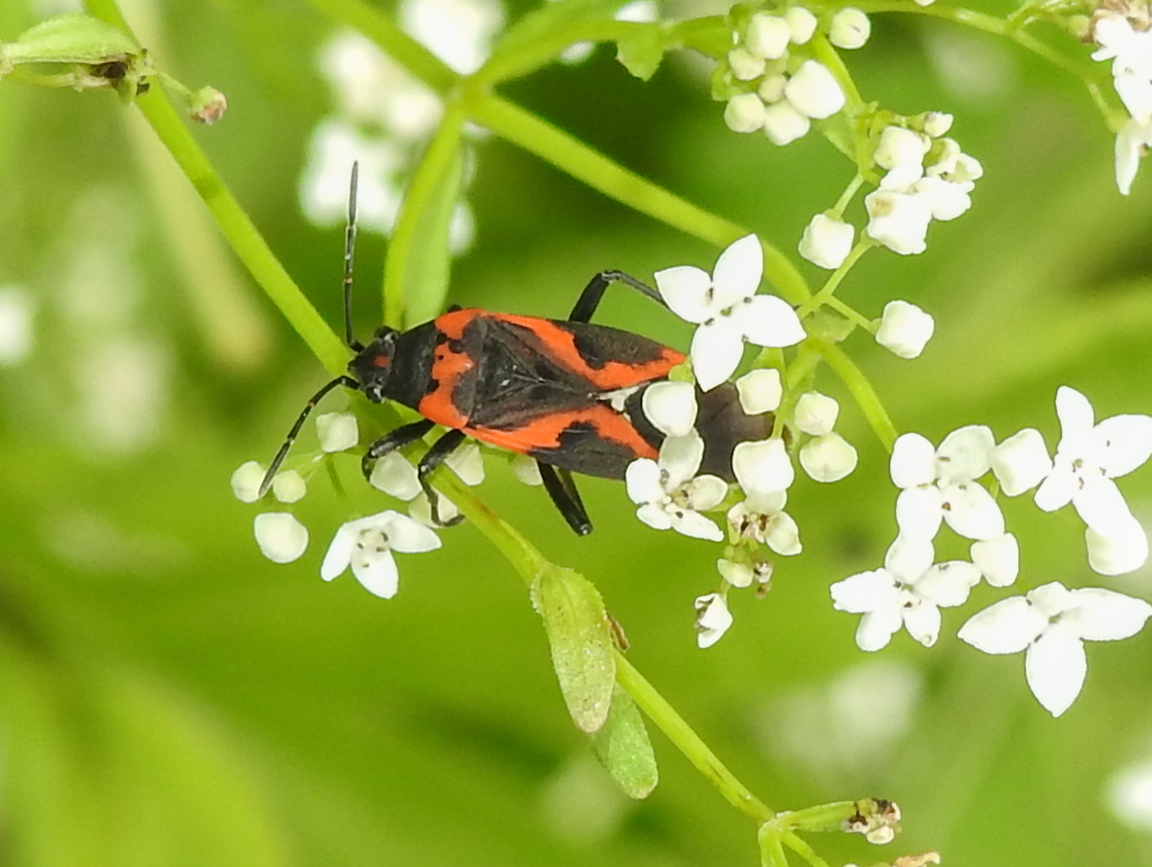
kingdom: Animalia
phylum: Arthropoda
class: Insecta
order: Hemiptera
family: Lygaeidae
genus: Lygaeus
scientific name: Lygaeus kalmii
